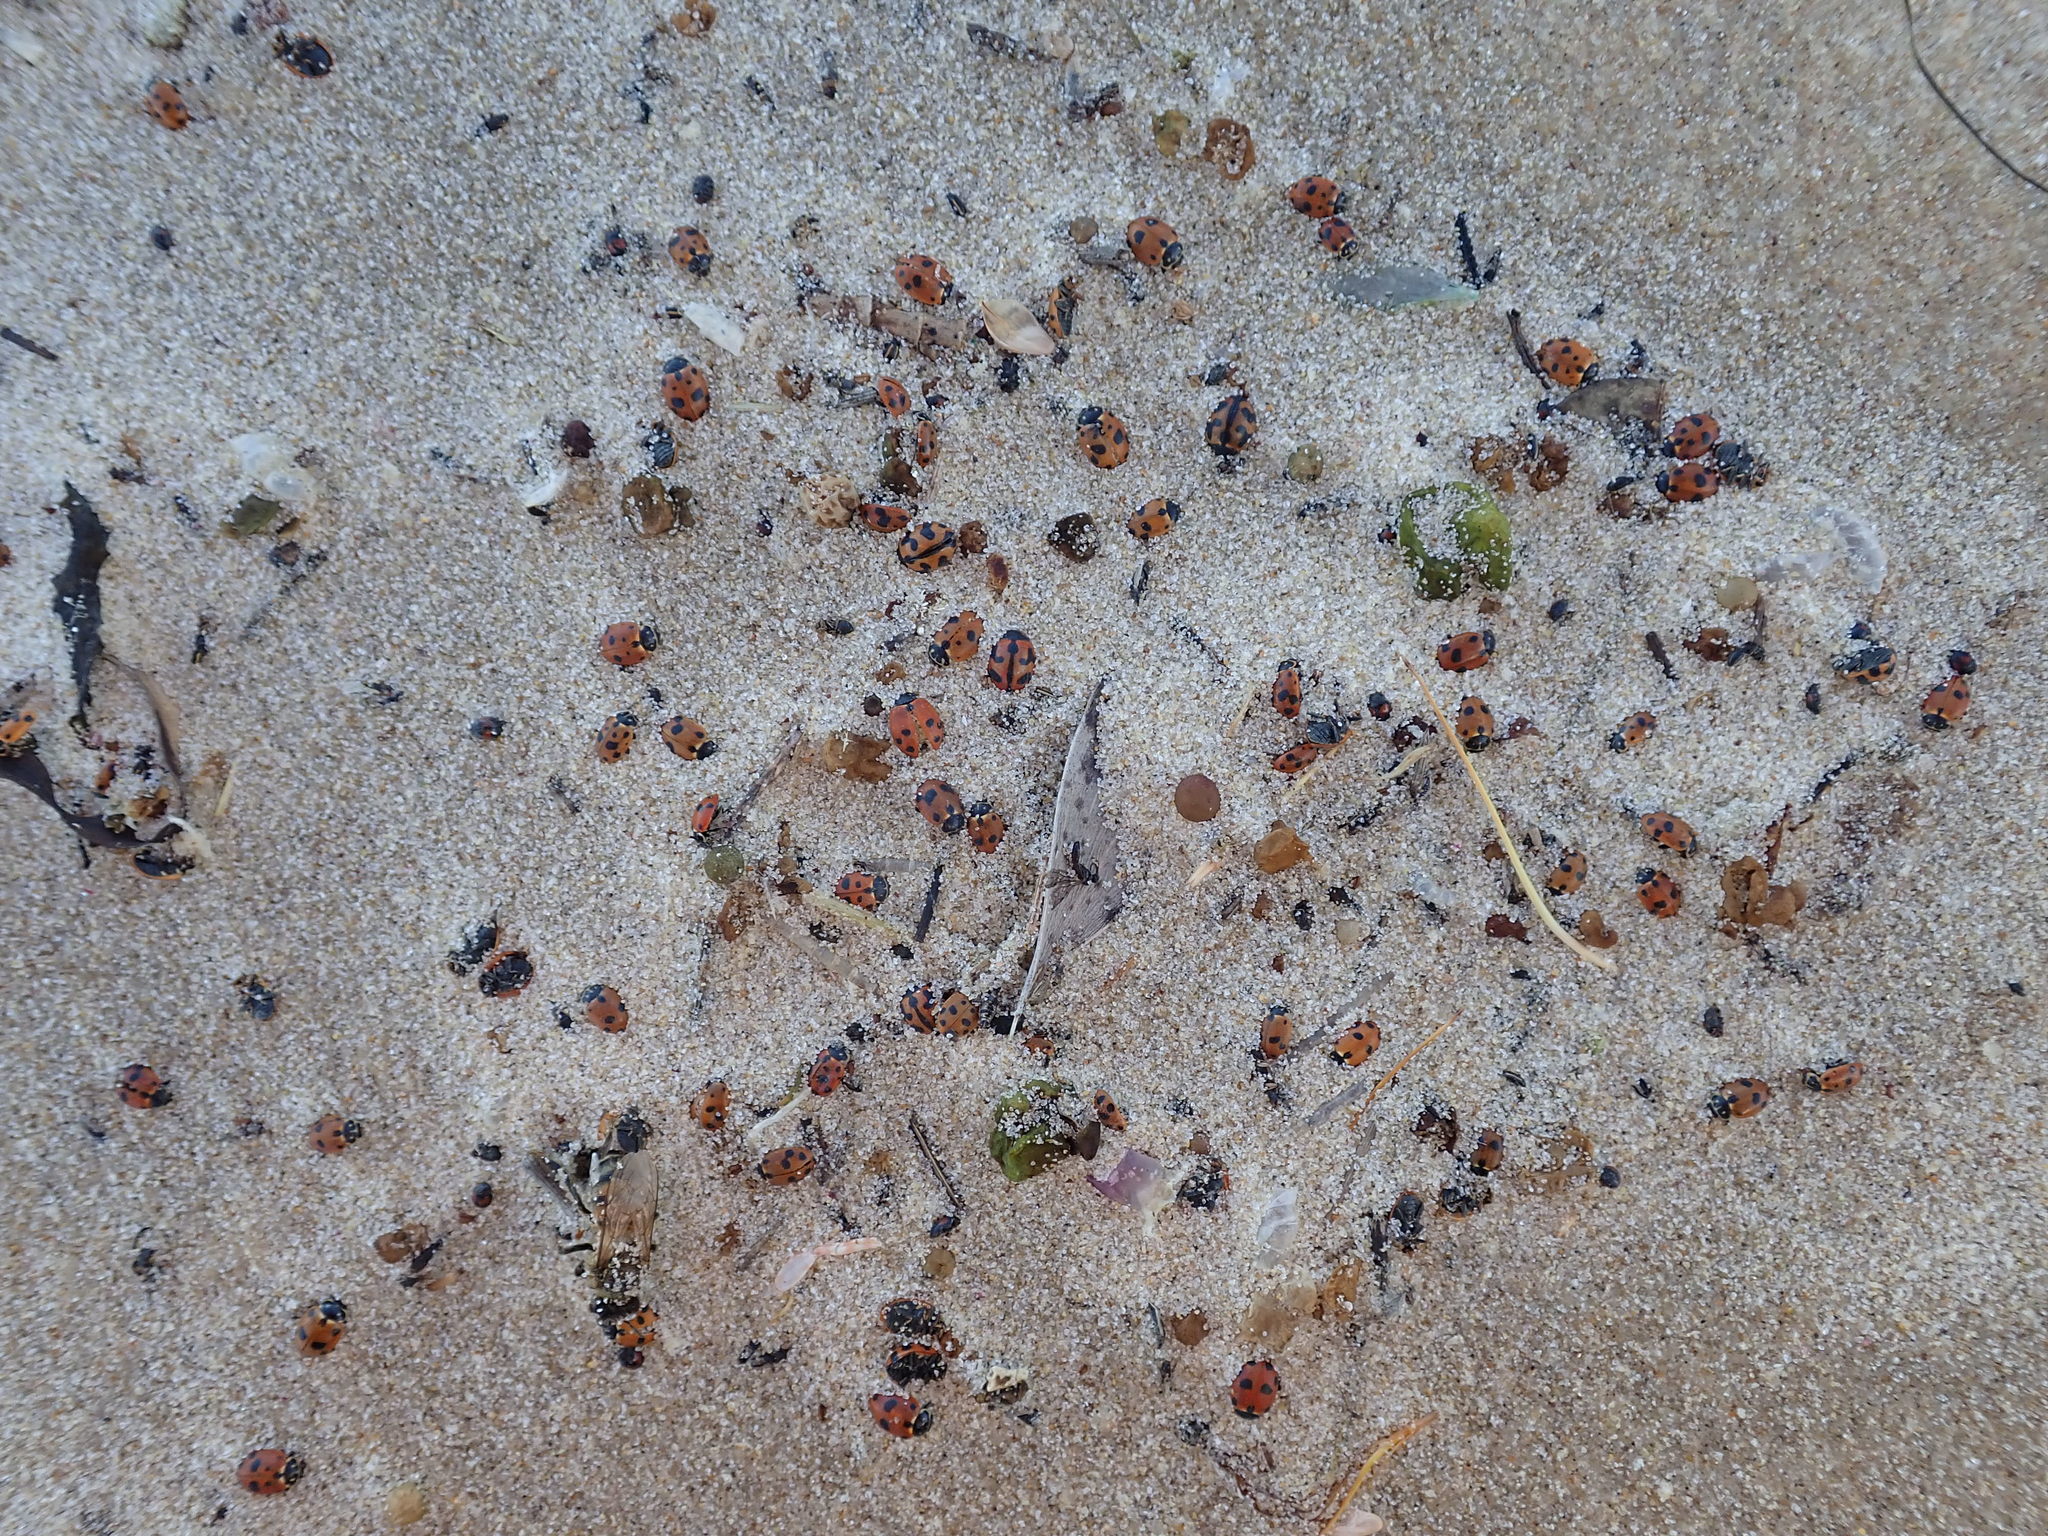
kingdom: Animalia
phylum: Arthropoda
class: Insecta
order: Coleoptera
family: Coccinellidae
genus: Hippodamia
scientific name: Hippodamia variegata
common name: Ladybird beetle
